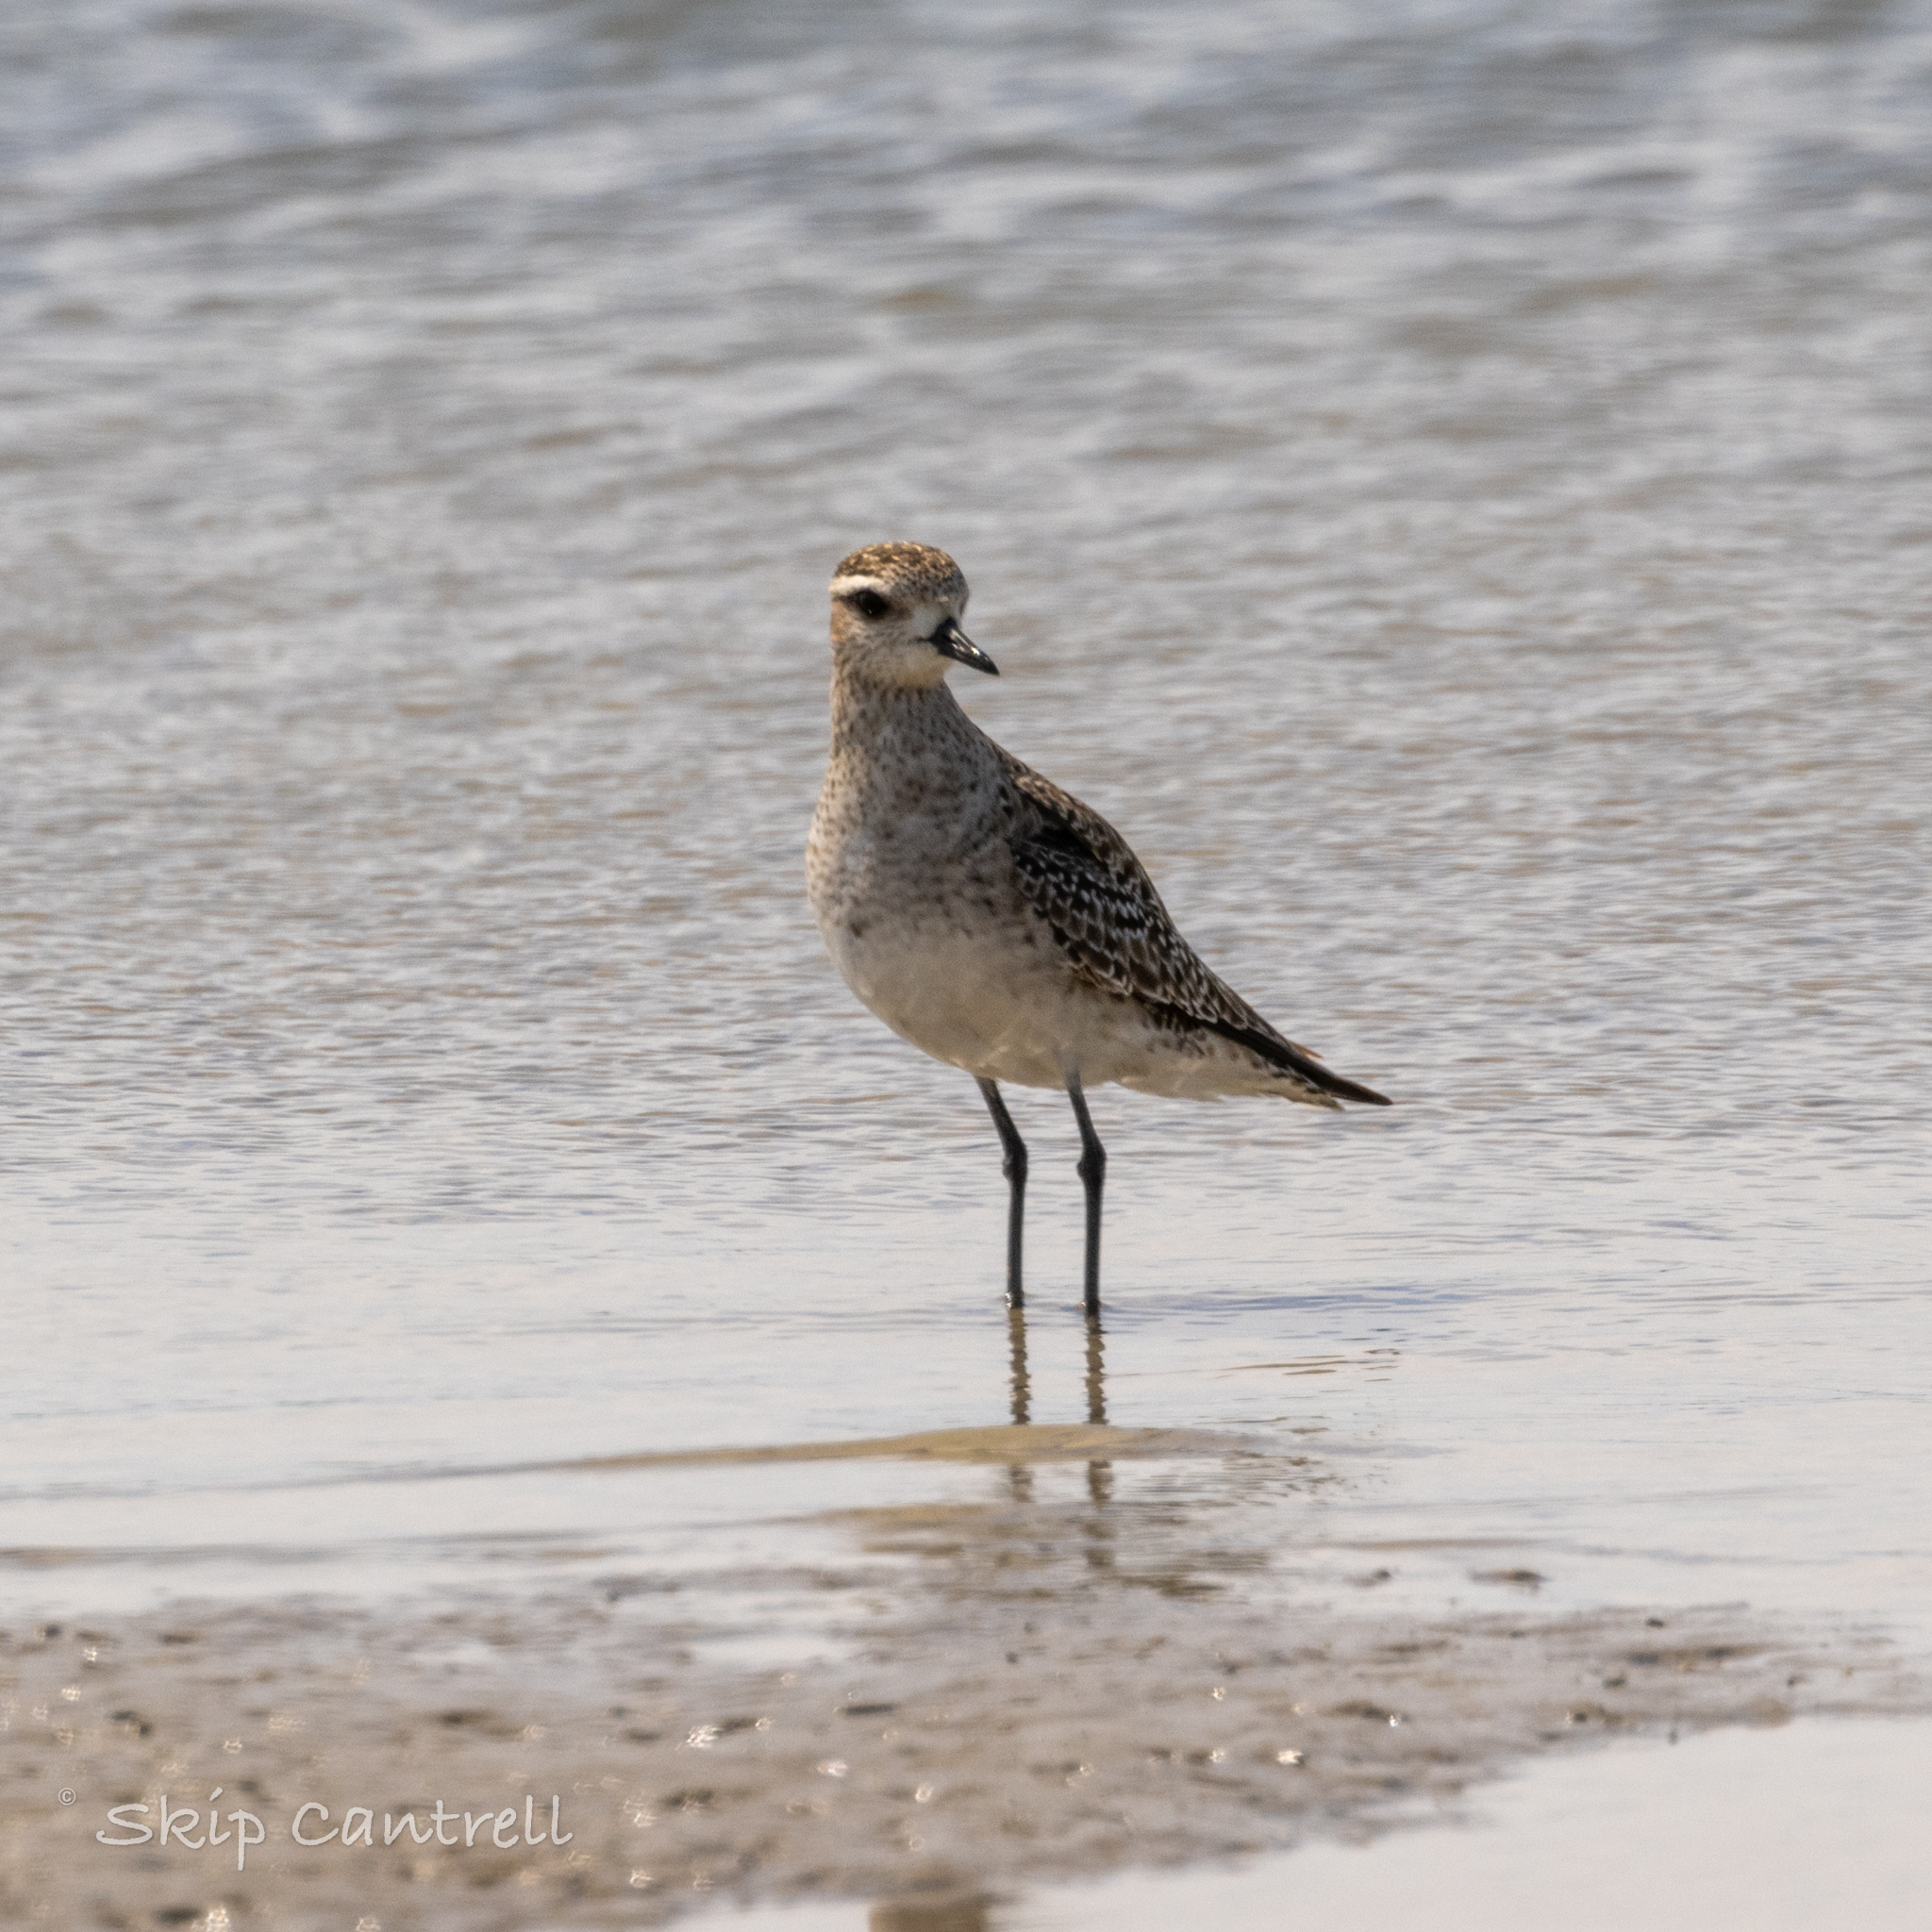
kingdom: Animalia
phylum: Chordata
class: Aves
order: Charadriiformes
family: Charadriidae
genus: Pluvialis
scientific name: Pluvialis dominica
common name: American golden plover
